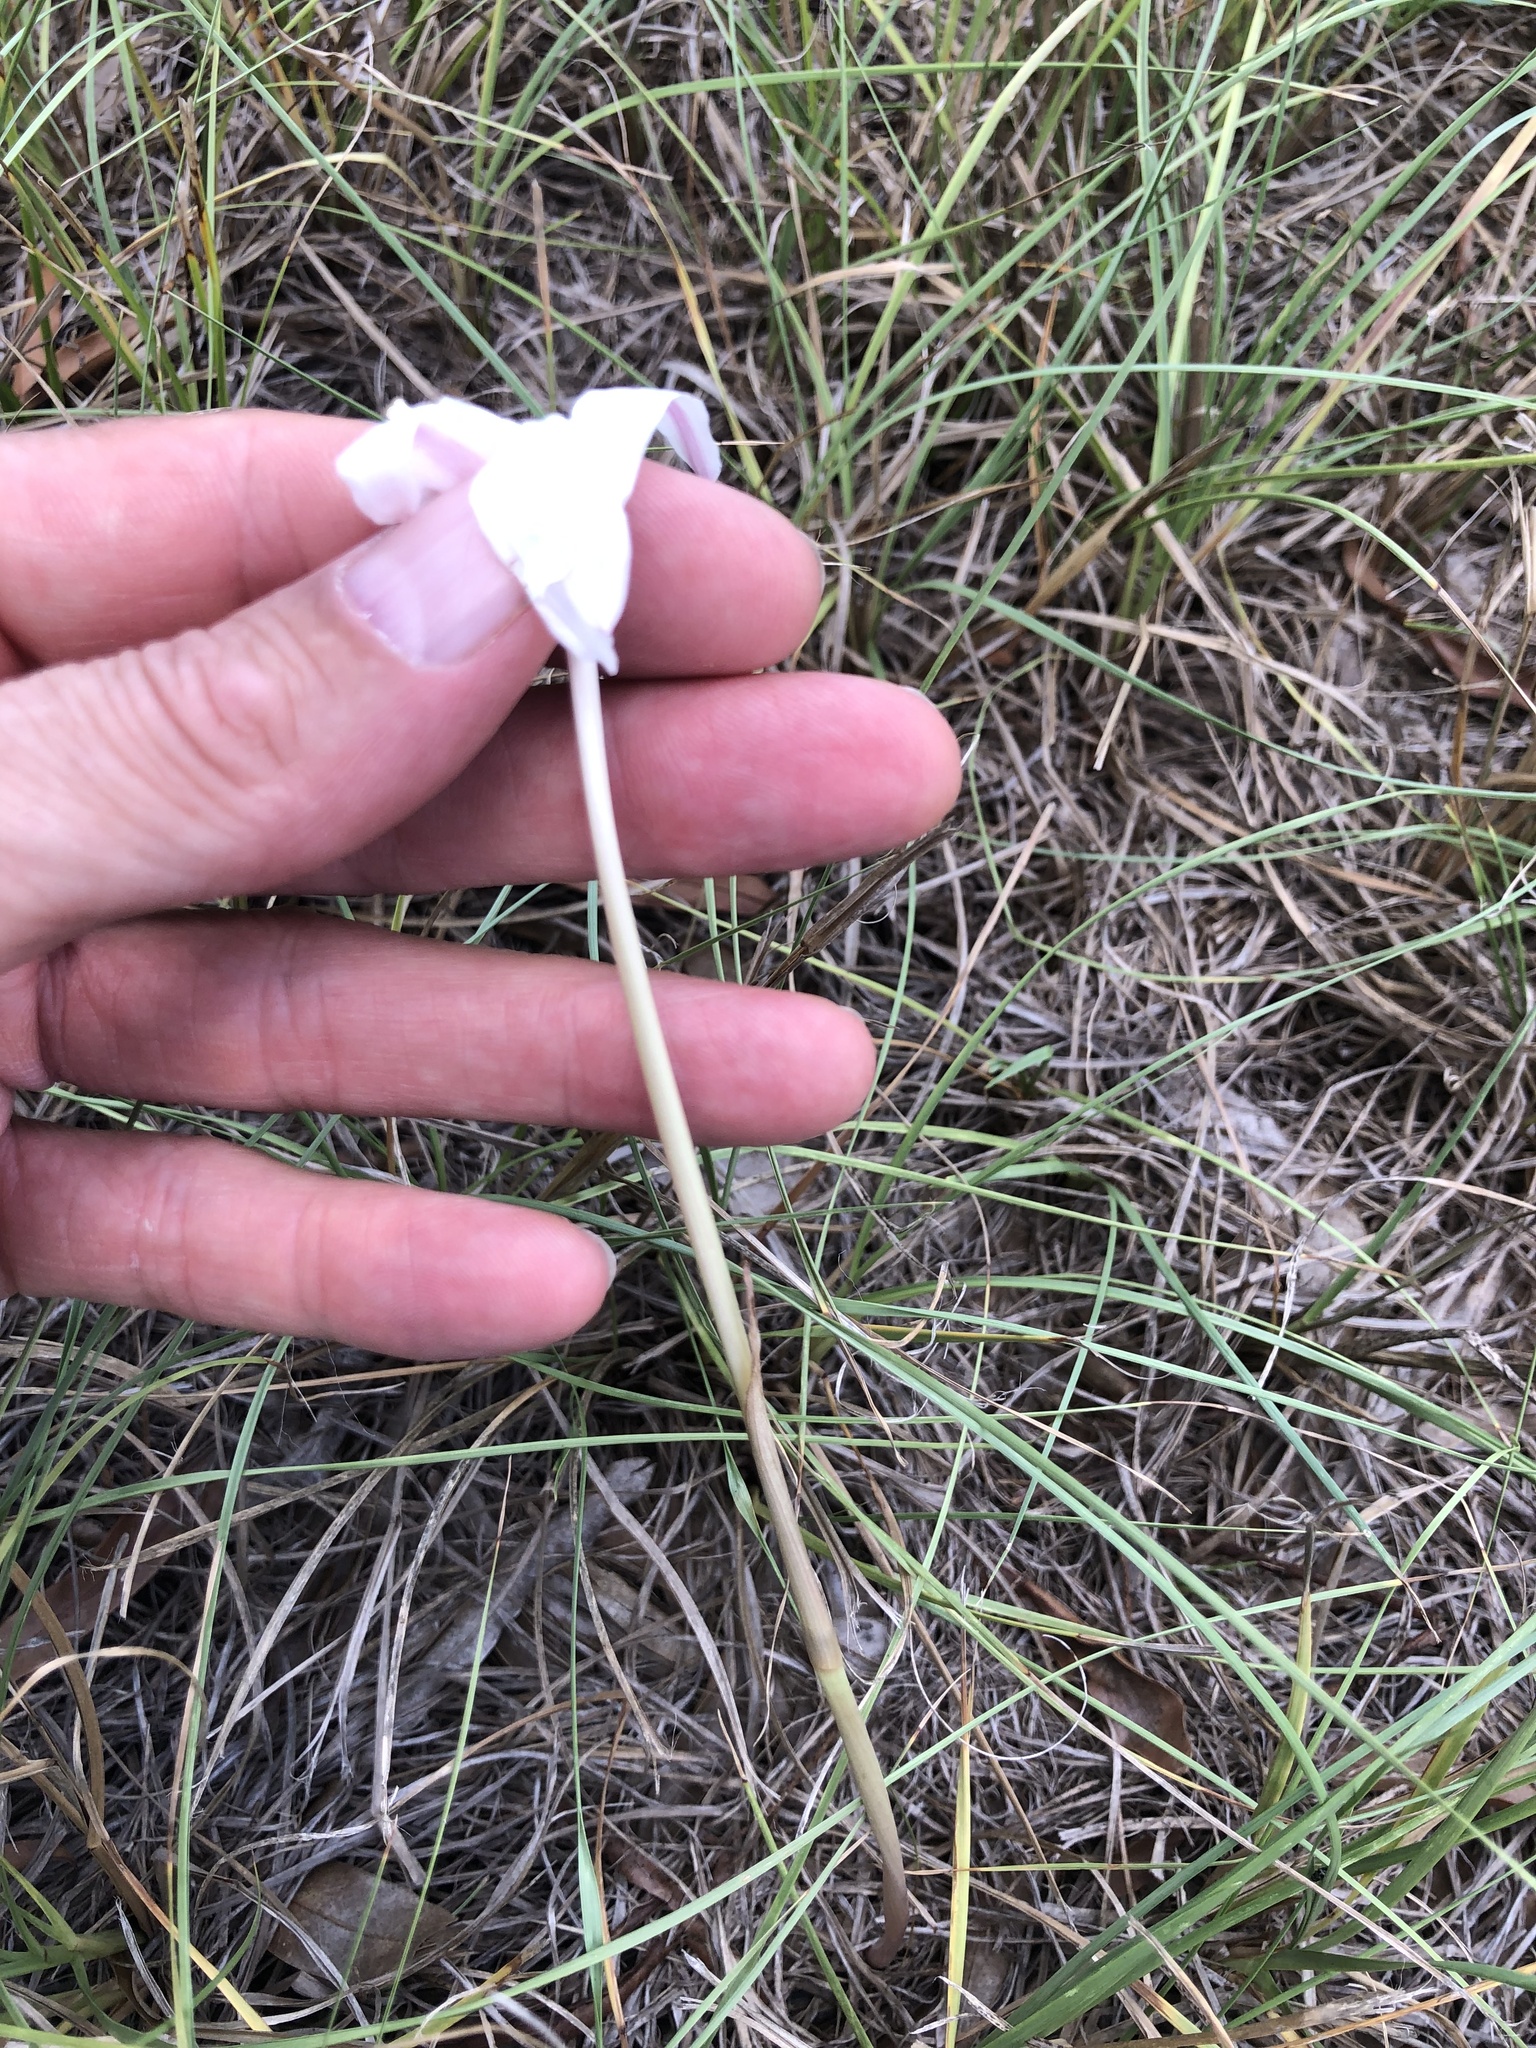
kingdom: Plantae
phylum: Tracheophyta
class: Liliopsida
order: Asparagales
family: Amaryllidaceae
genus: Zephyranthes
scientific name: Zephyranthes traubii
